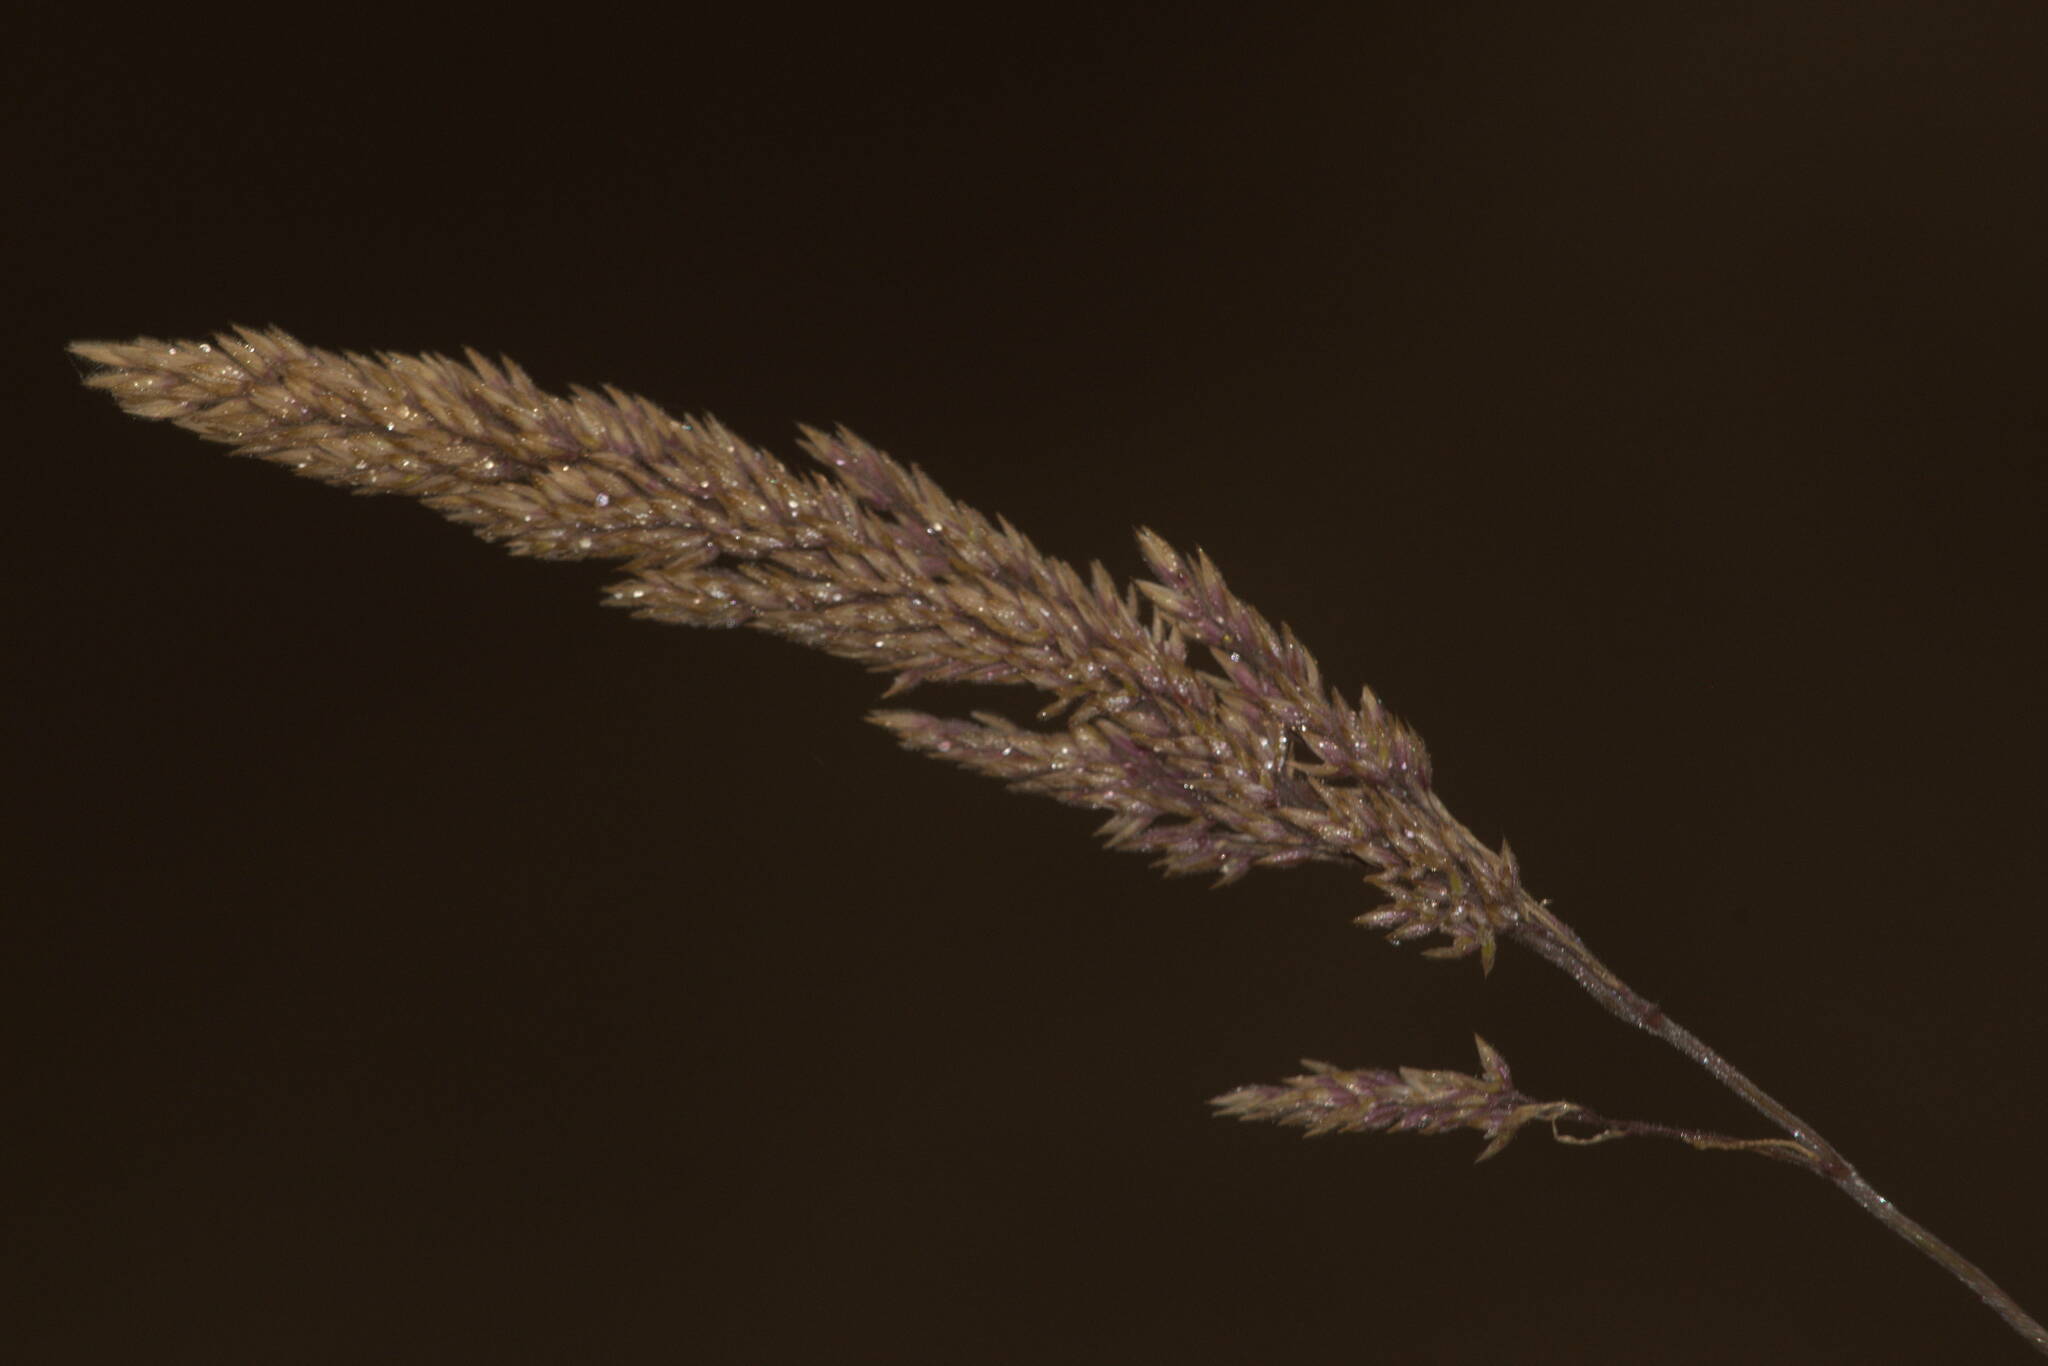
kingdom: Plantae
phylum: Tracheophyta
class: Liliopsida
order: Poales
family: Poaceae
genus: Holcus
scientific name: Holcus lanatus
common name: Yorkshire-fog
